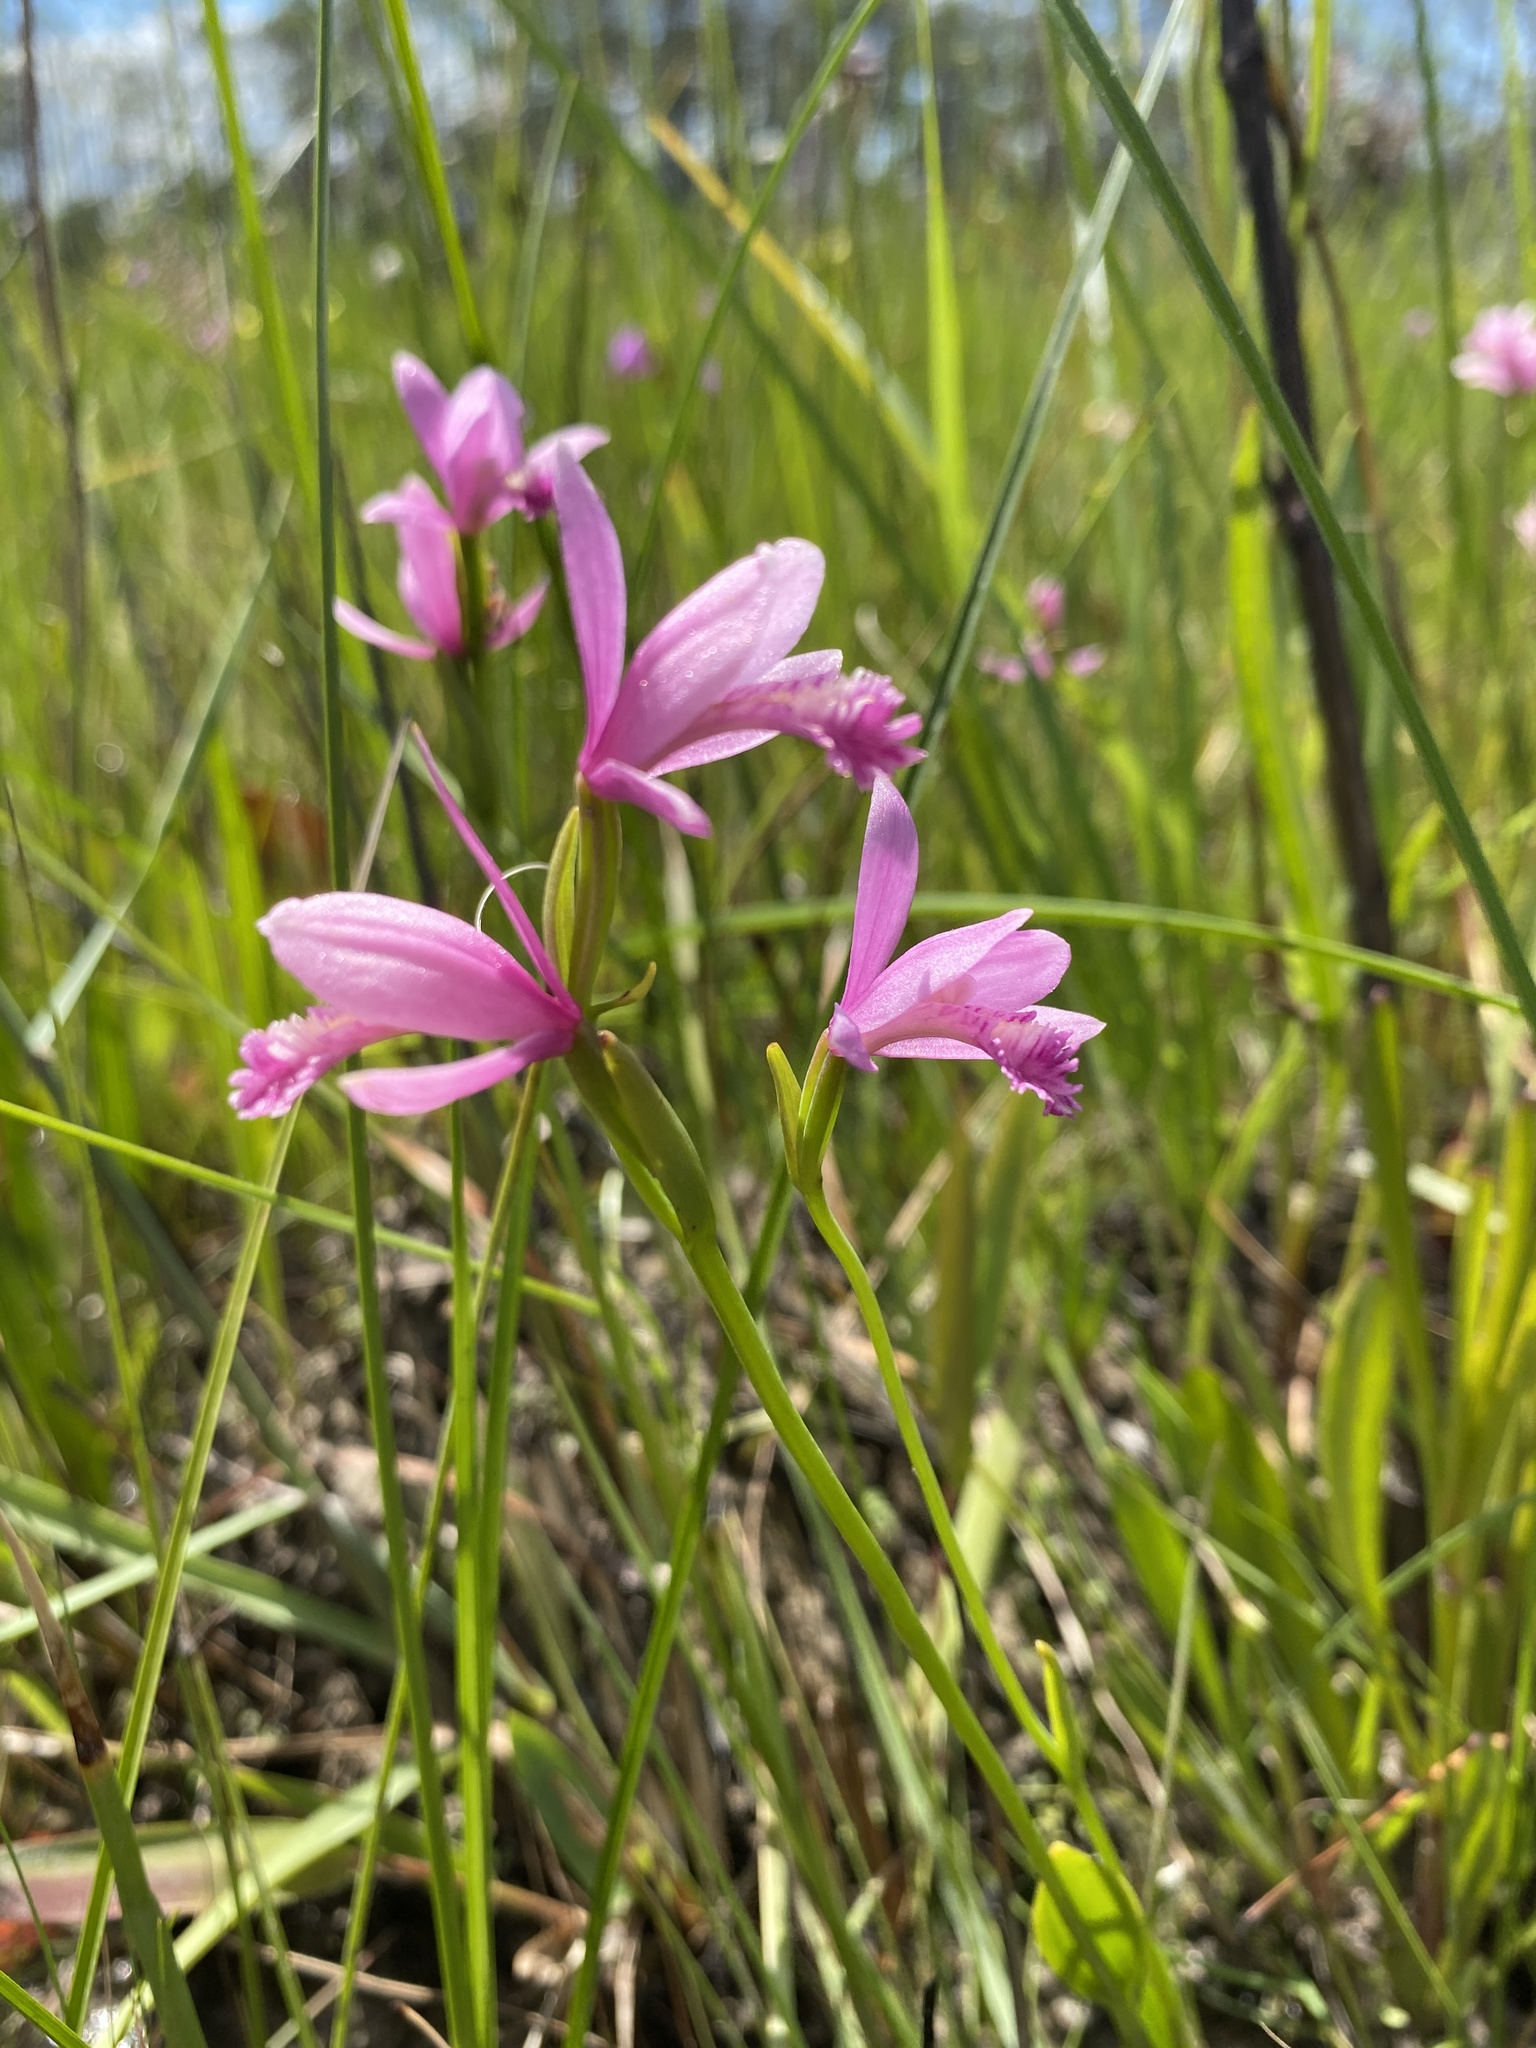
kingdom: Plantae
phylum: Tracheophyta
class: Liliopsida
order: Asparagales
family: Orchidaceae
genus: Pogonia
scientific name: Pogonia ophioglossoides
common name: Rose pogonia
